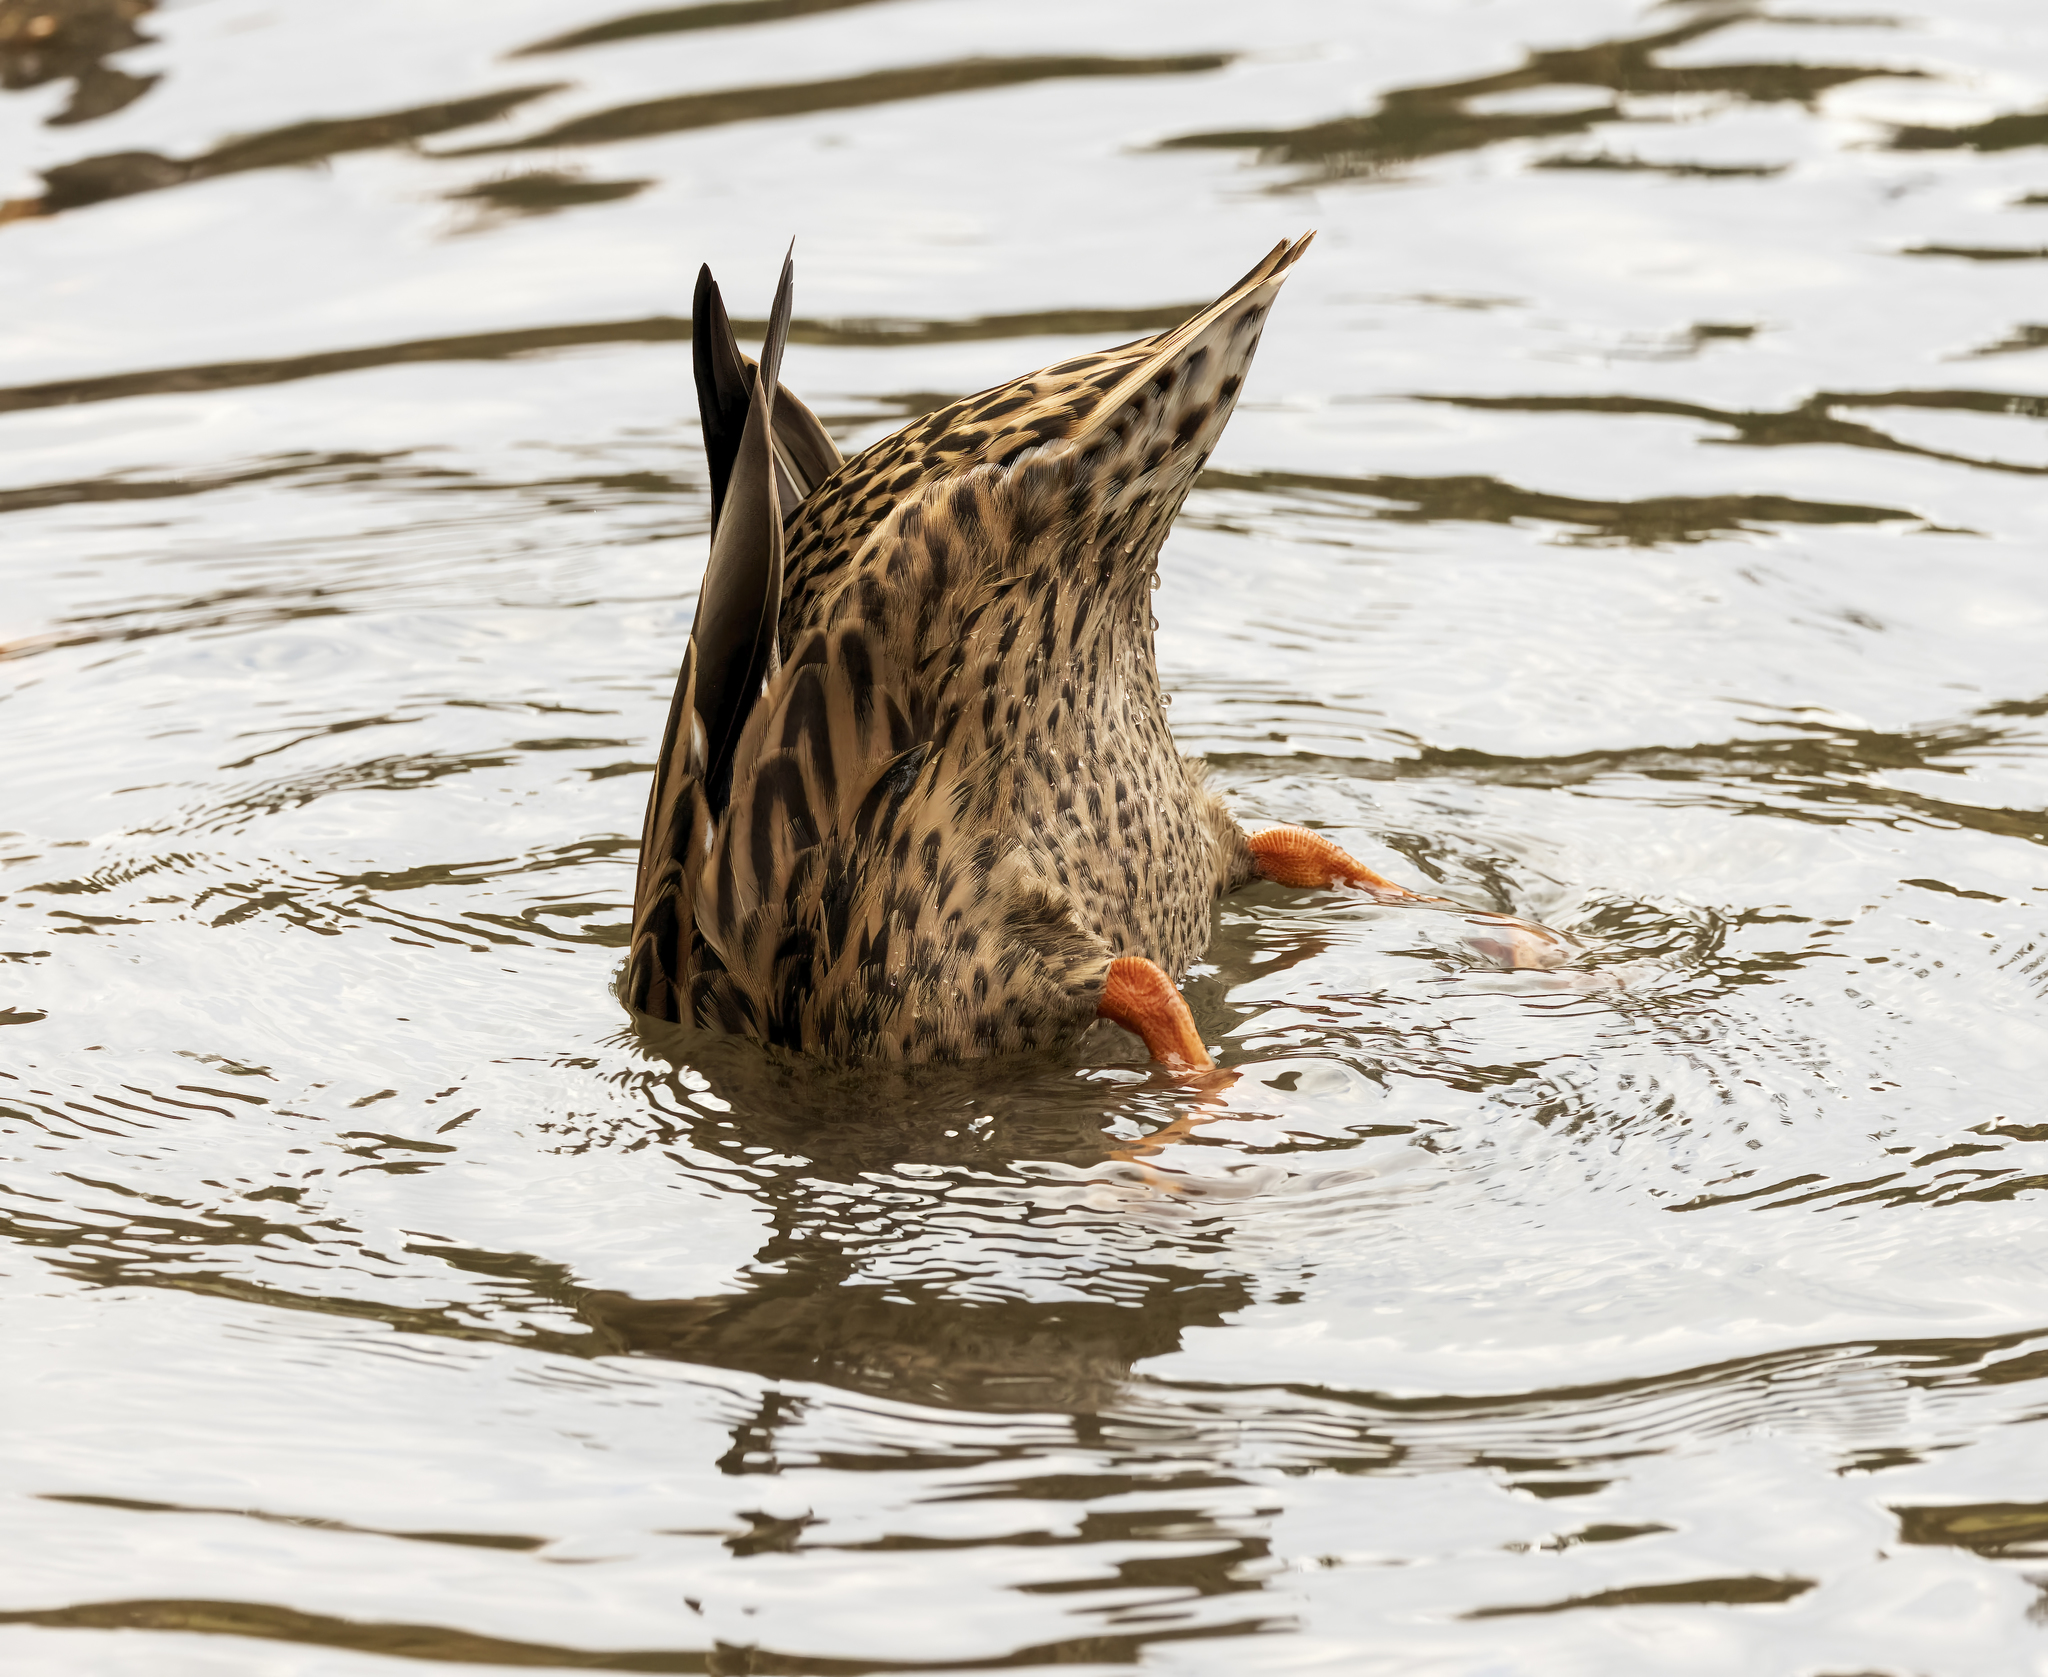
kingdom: Animalia
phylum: Chordata
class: Aves
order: Anseriformes
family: Anatidae
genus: Anas
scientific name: Anas platyrhynchos
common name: Mallard
